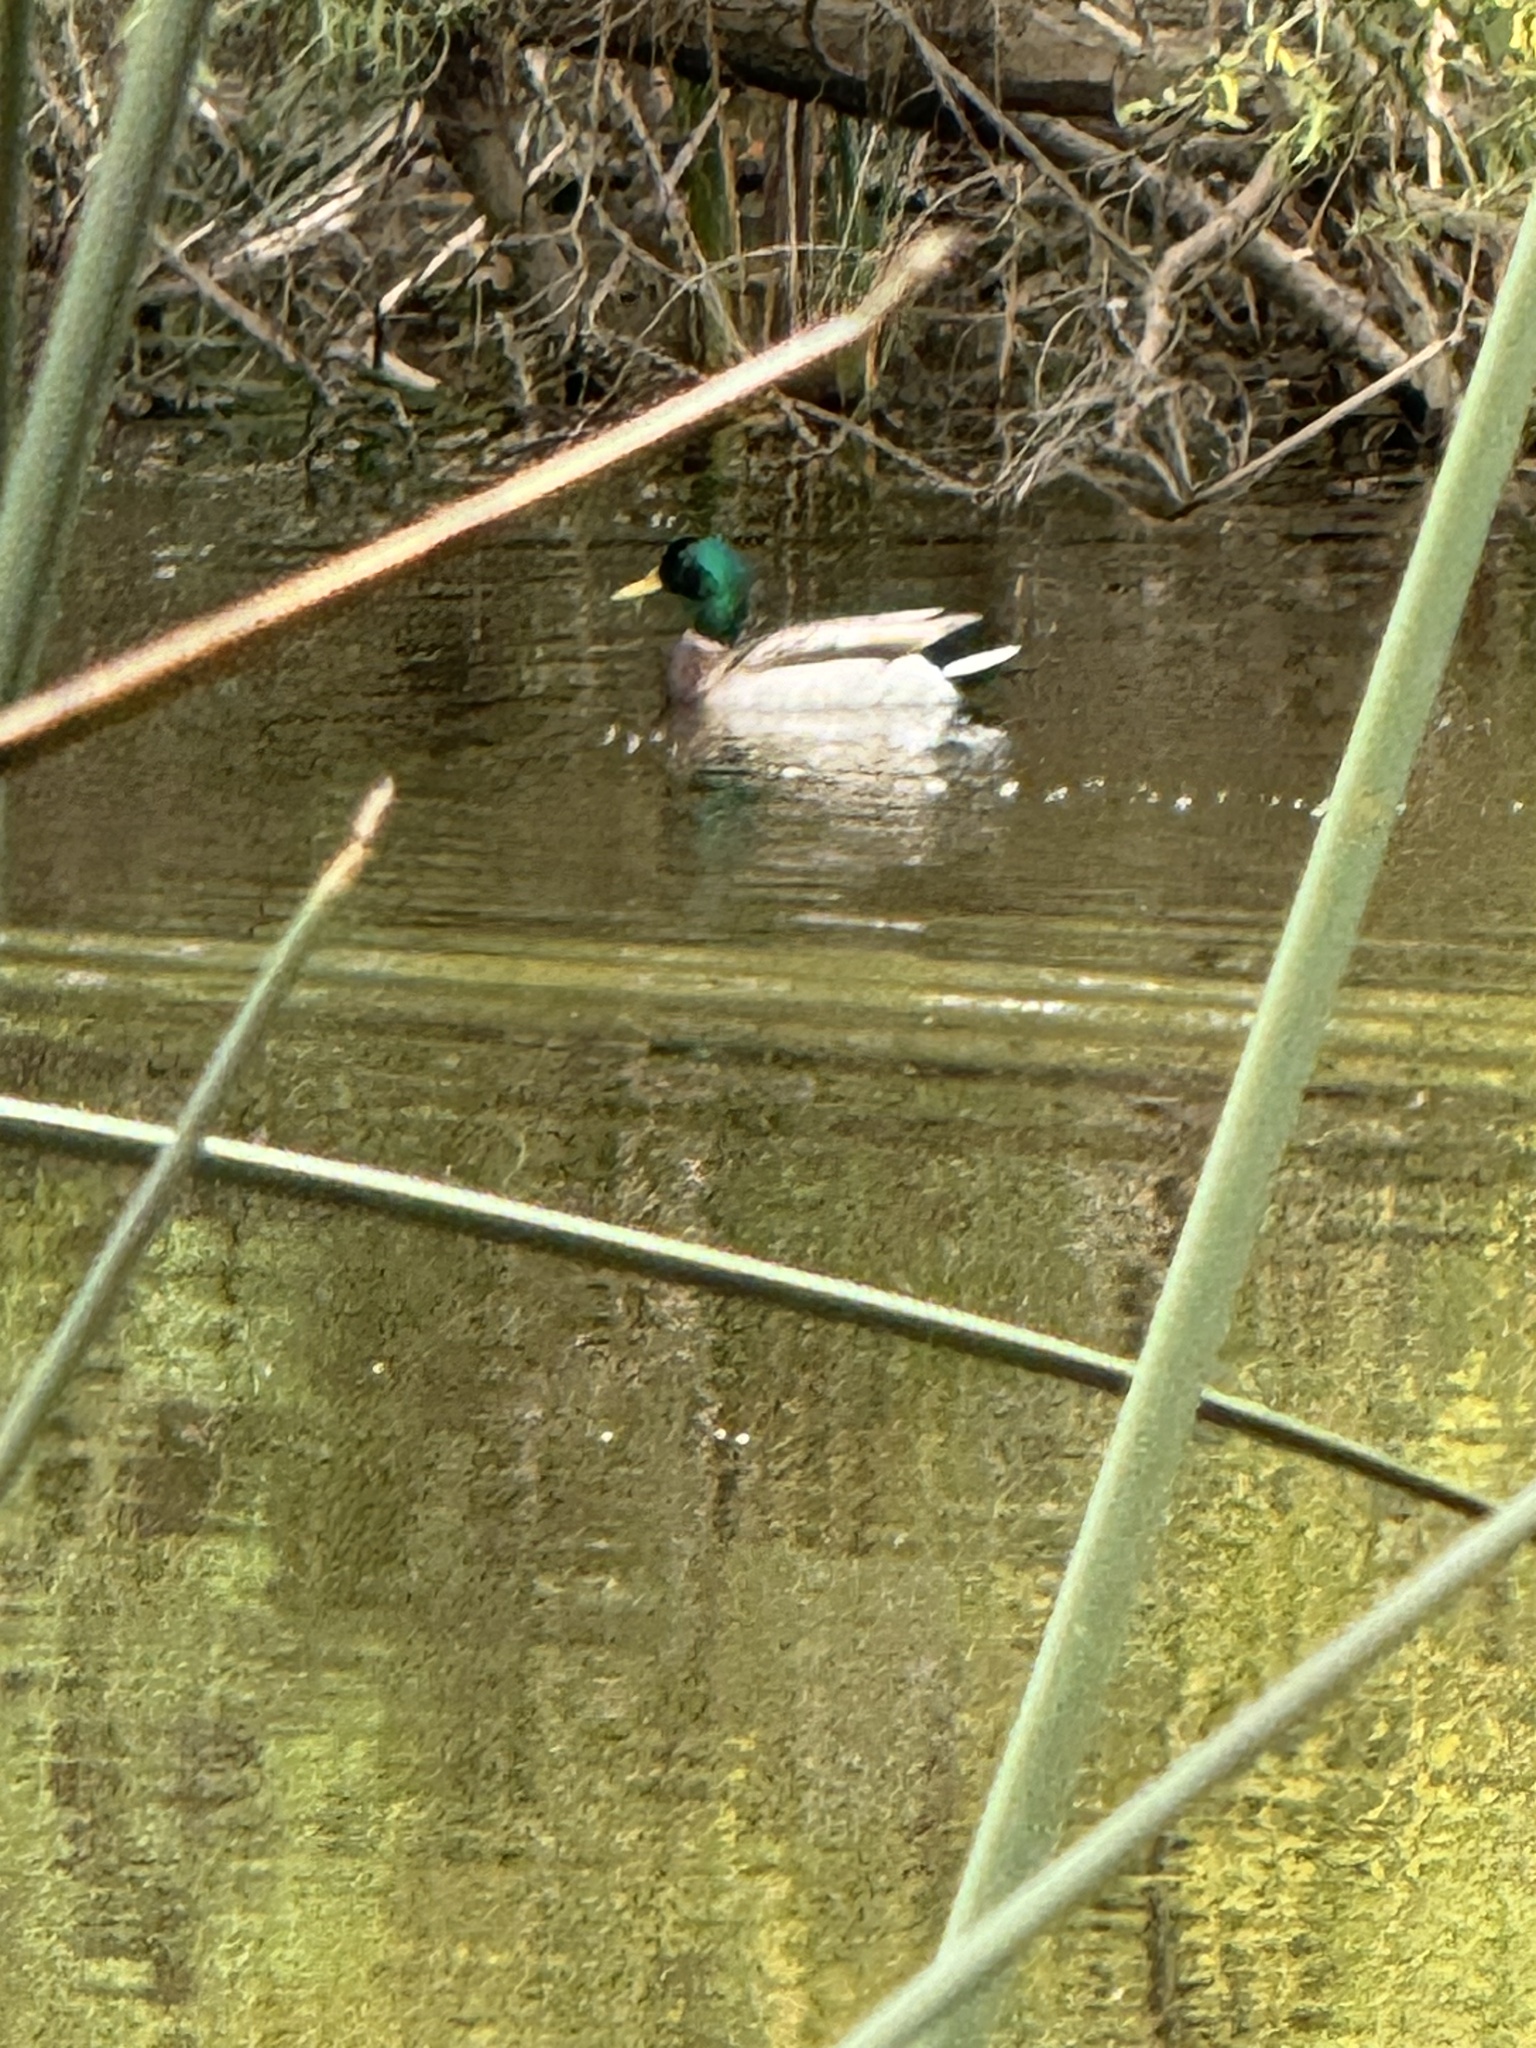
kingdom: Animalia
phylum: Chordata
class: Aves
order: Anseriformes
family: Anatidae
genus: Anas
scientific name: Anas platyrhynchos
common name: Mallard
